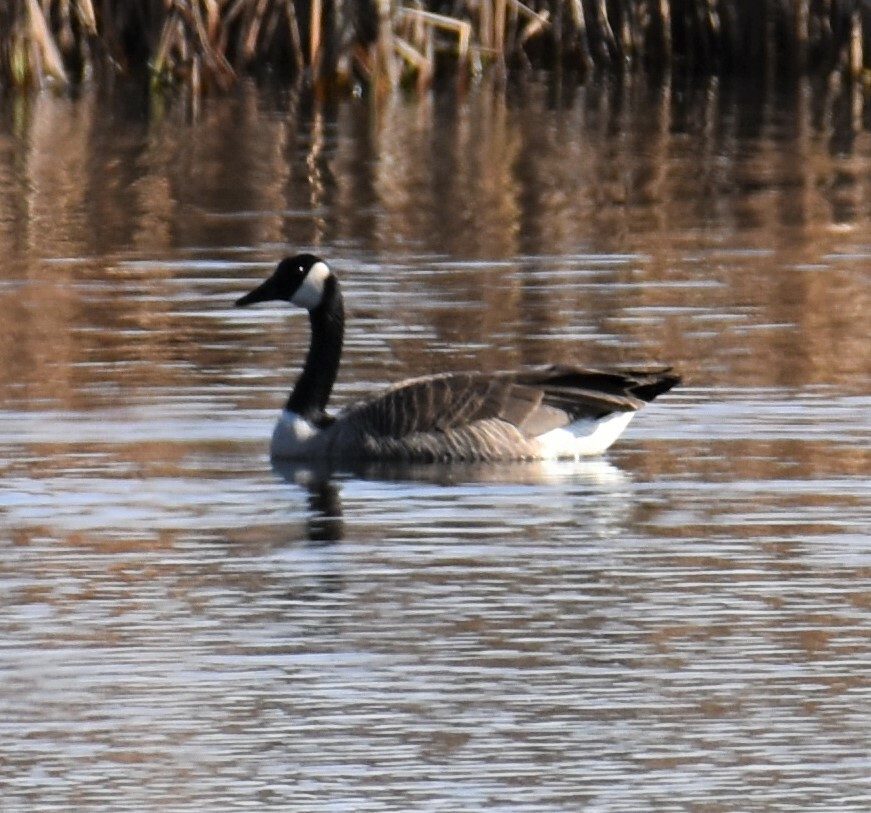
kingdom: Animalia
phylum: Chordata
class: Aves
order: Anseriformes
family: Anatidae
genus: Branta
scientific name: Branta canadensis
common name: Canada goose
